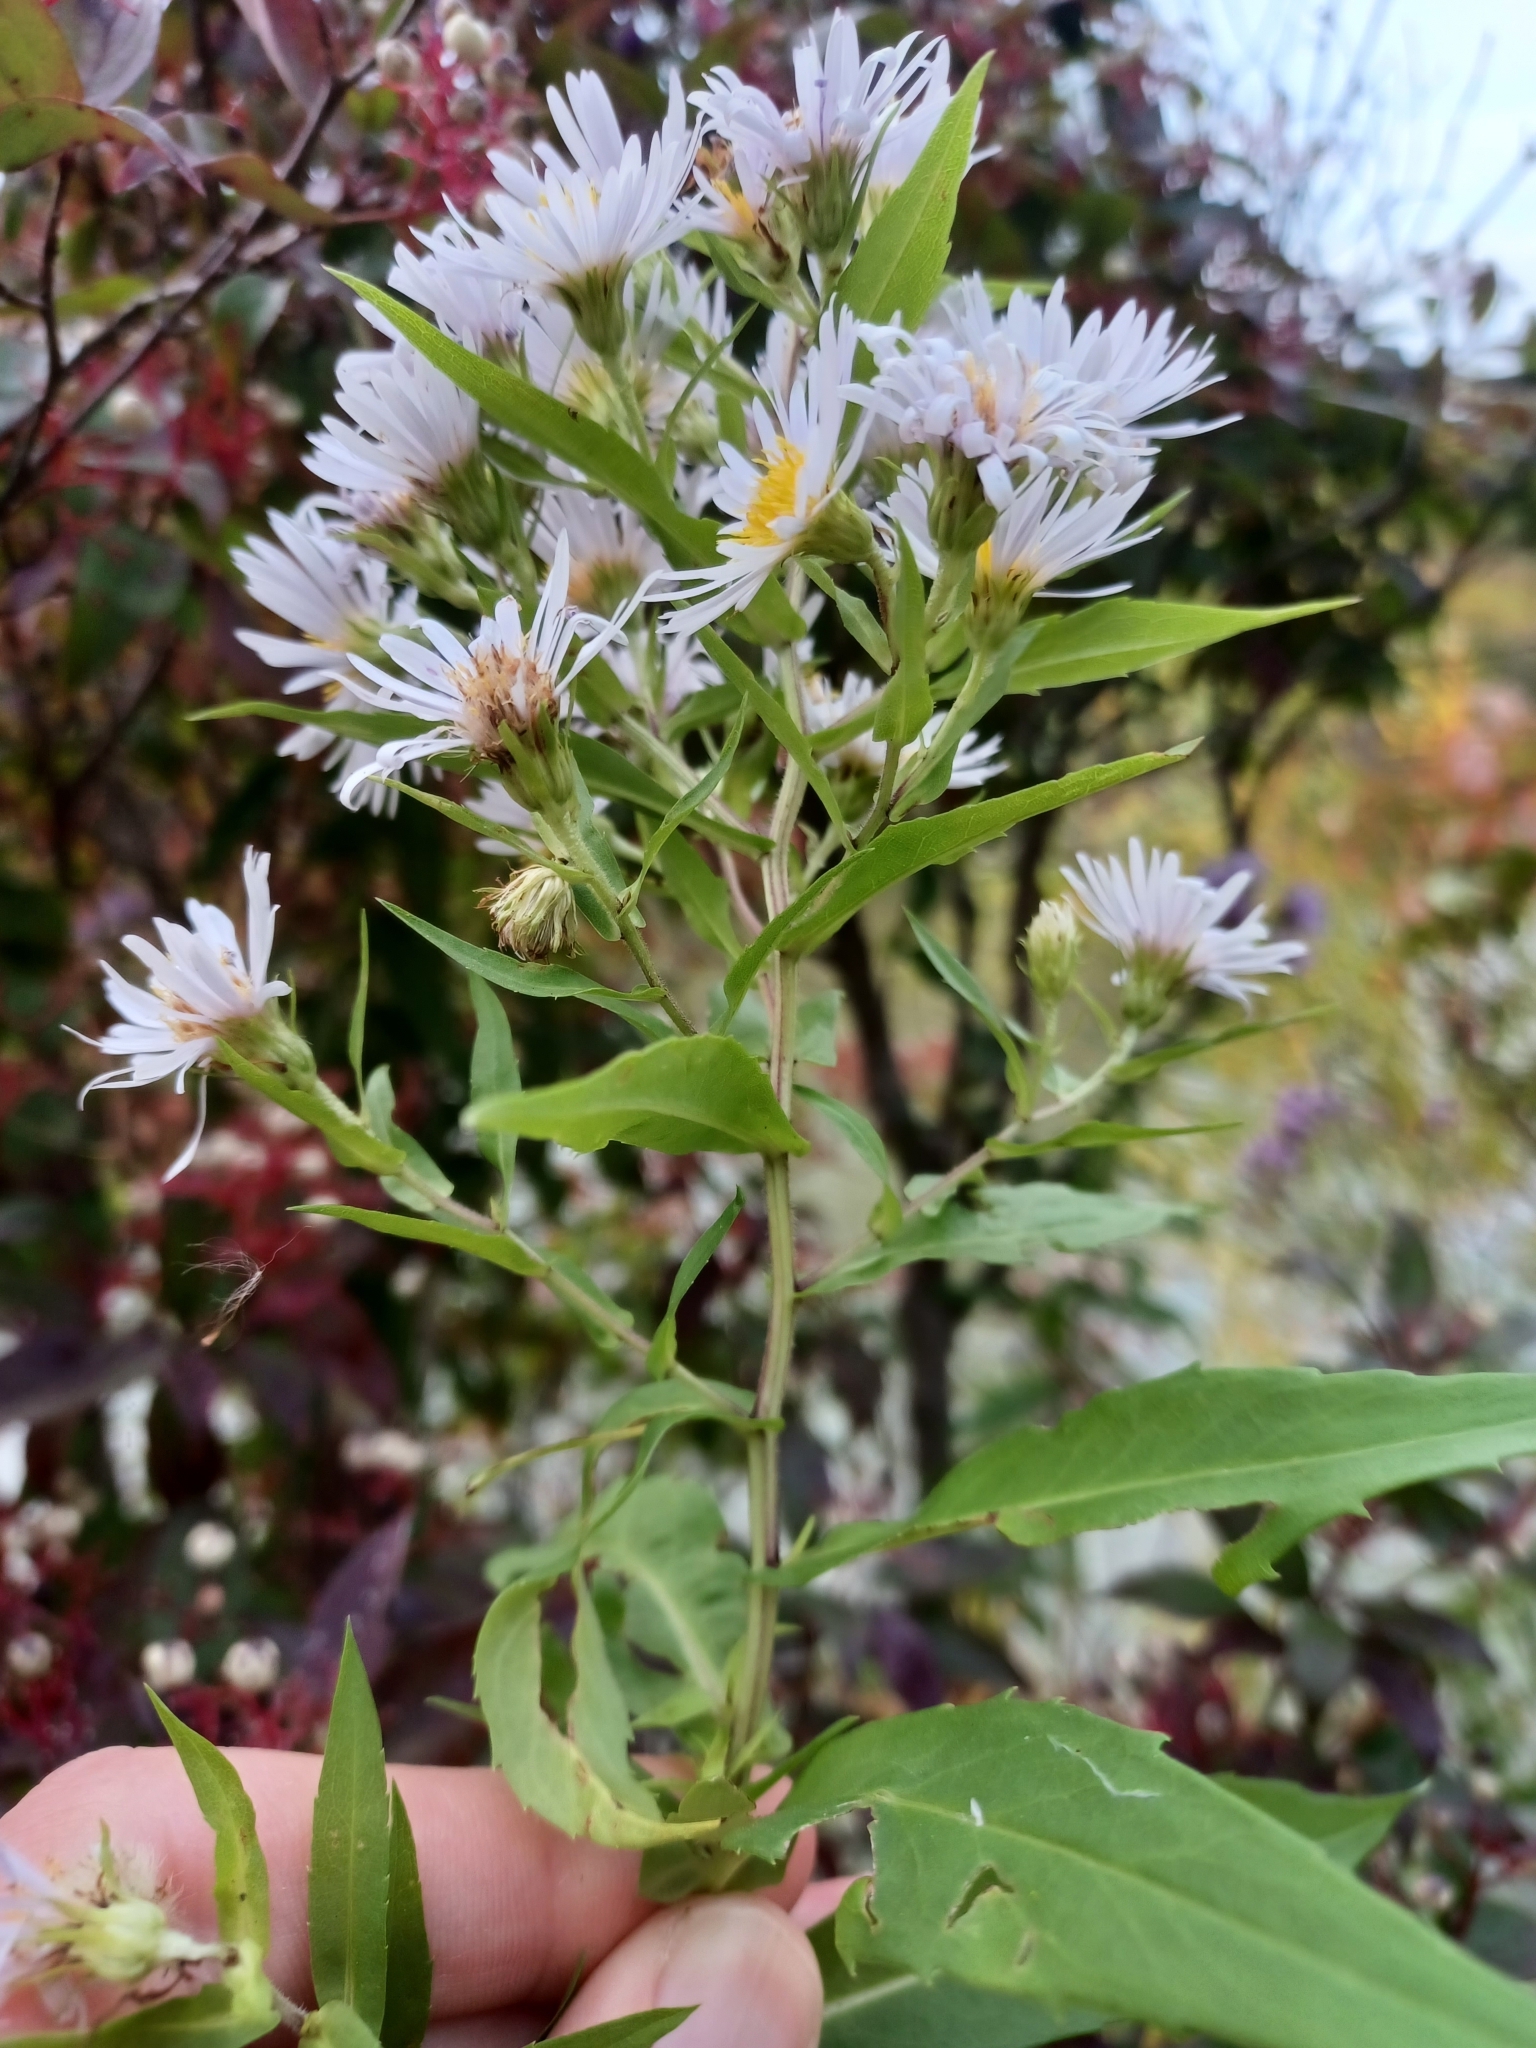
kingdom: Plantae
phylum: Tracheophyta
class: Magnoliopsida
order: Asterales
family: Asteraceae
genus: Symphyotrichum
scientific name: Symphyotrichum firmum
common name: Shining aster
